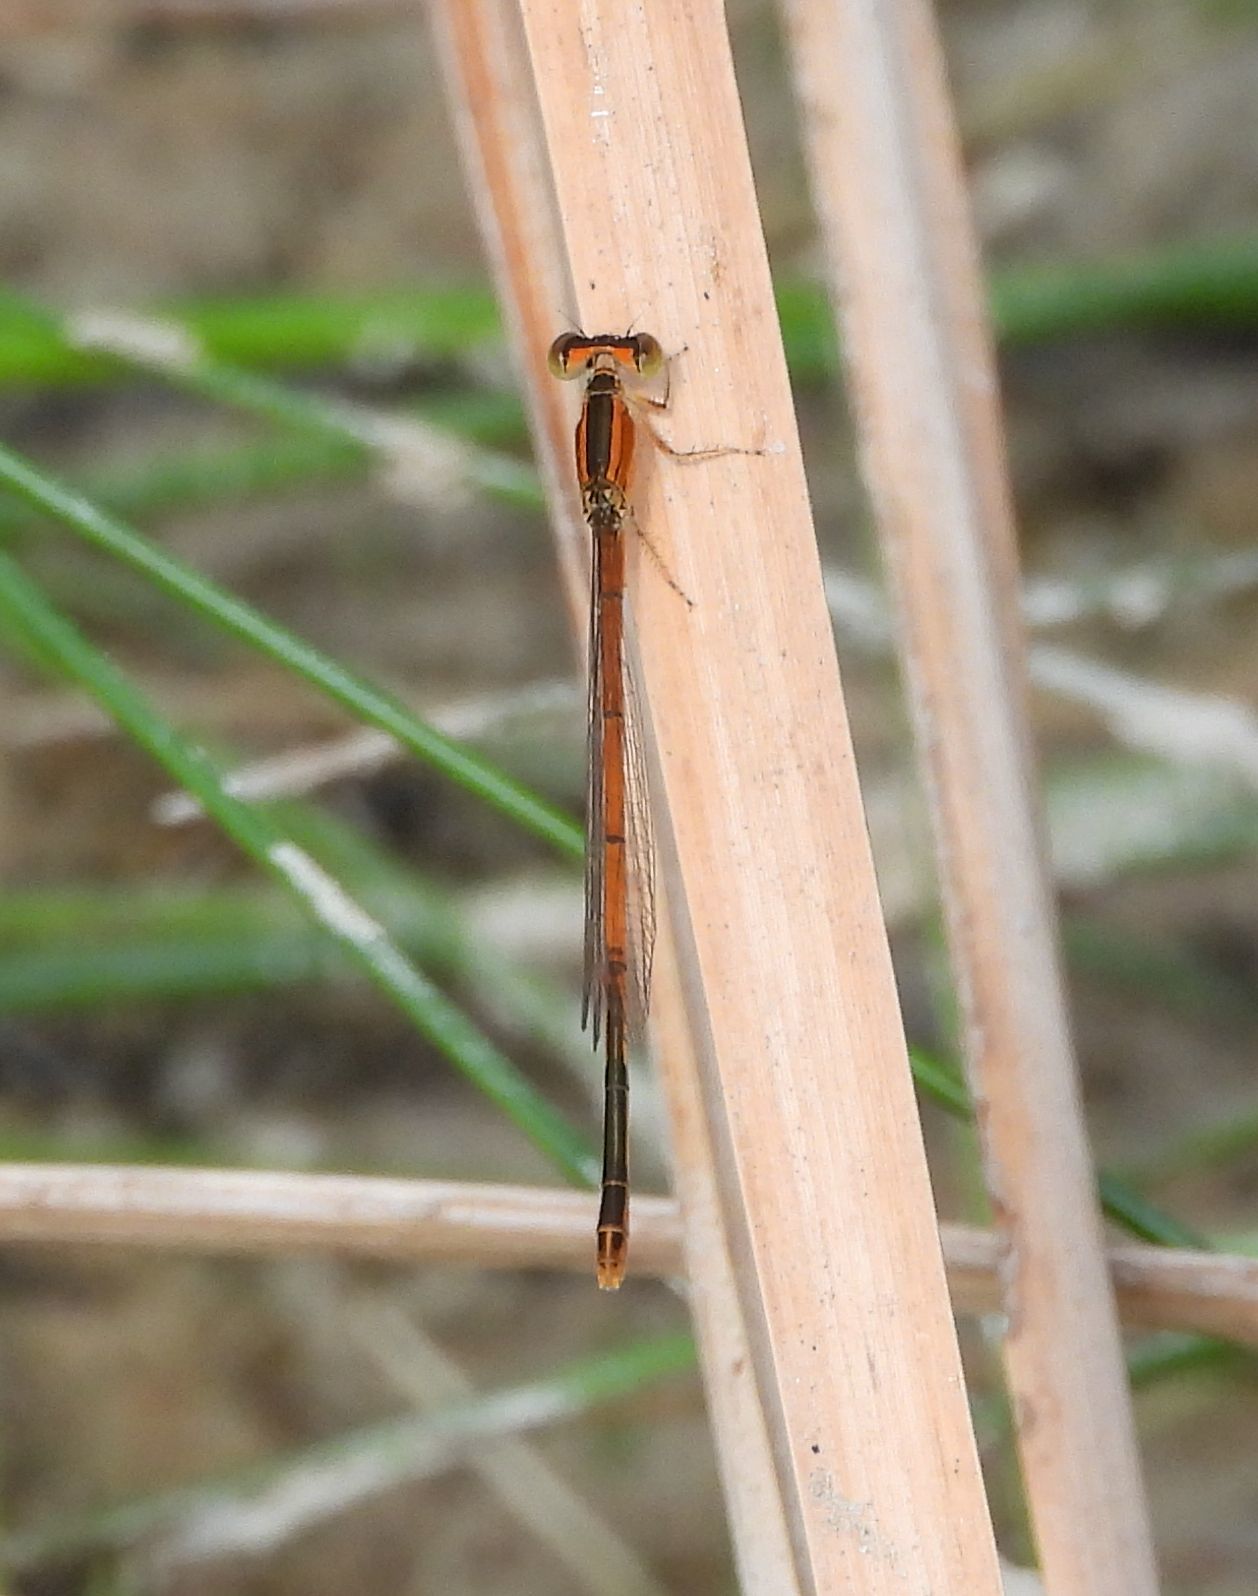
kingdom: Animalia
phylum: Arthropoda
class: Insecta
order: Odonata
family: Coenagrionidae
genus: Ischnura
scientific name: Ischnura hastata
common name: Citrine forktail
